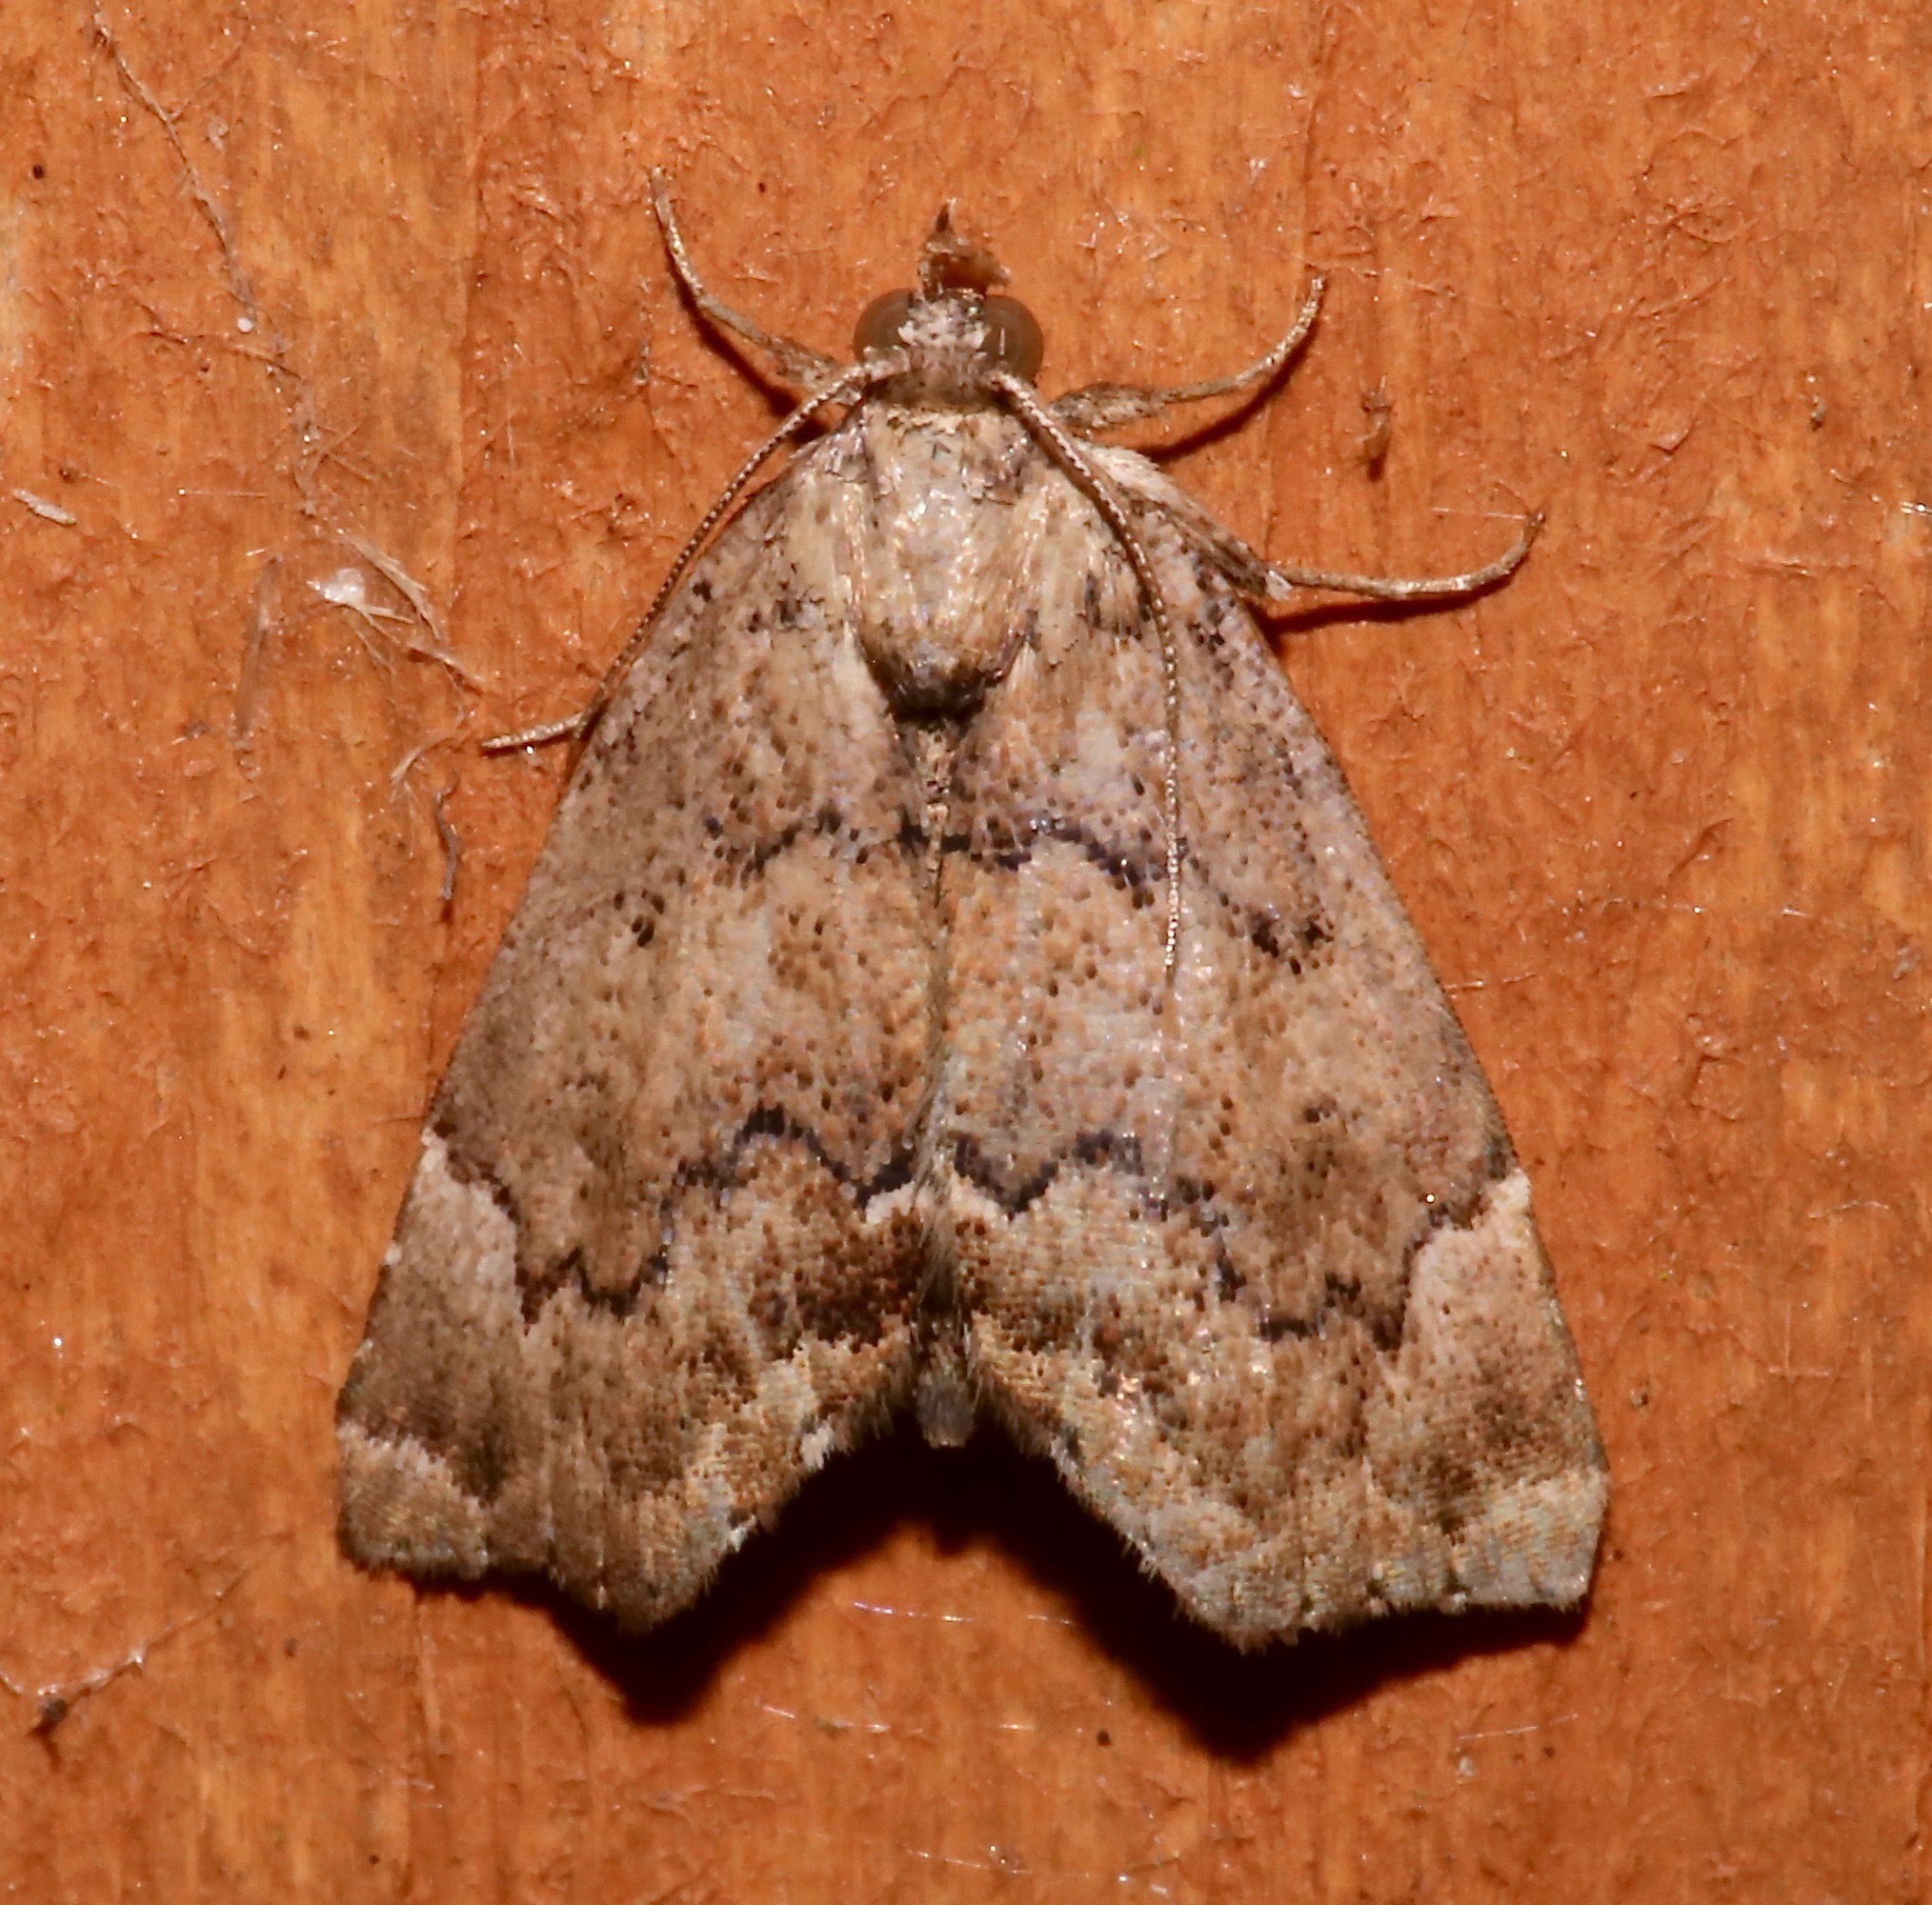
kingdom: Animalia
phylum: Arthropoda
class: Insecta
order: Lepidoptera
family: Erebidae
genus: Cutina
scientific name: Cutina aluticolor
